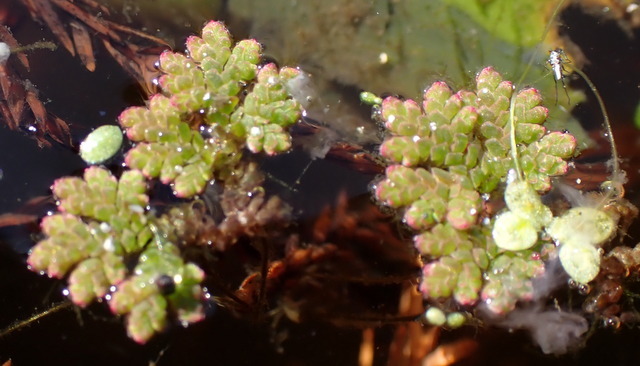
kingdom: Plantae
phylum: Tracheophyta
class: Polypodiopsida
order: Salviniales
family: Salviniaceae
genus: Azolla
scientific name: Azolla caroliniana
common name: Carolina mosquitofern
